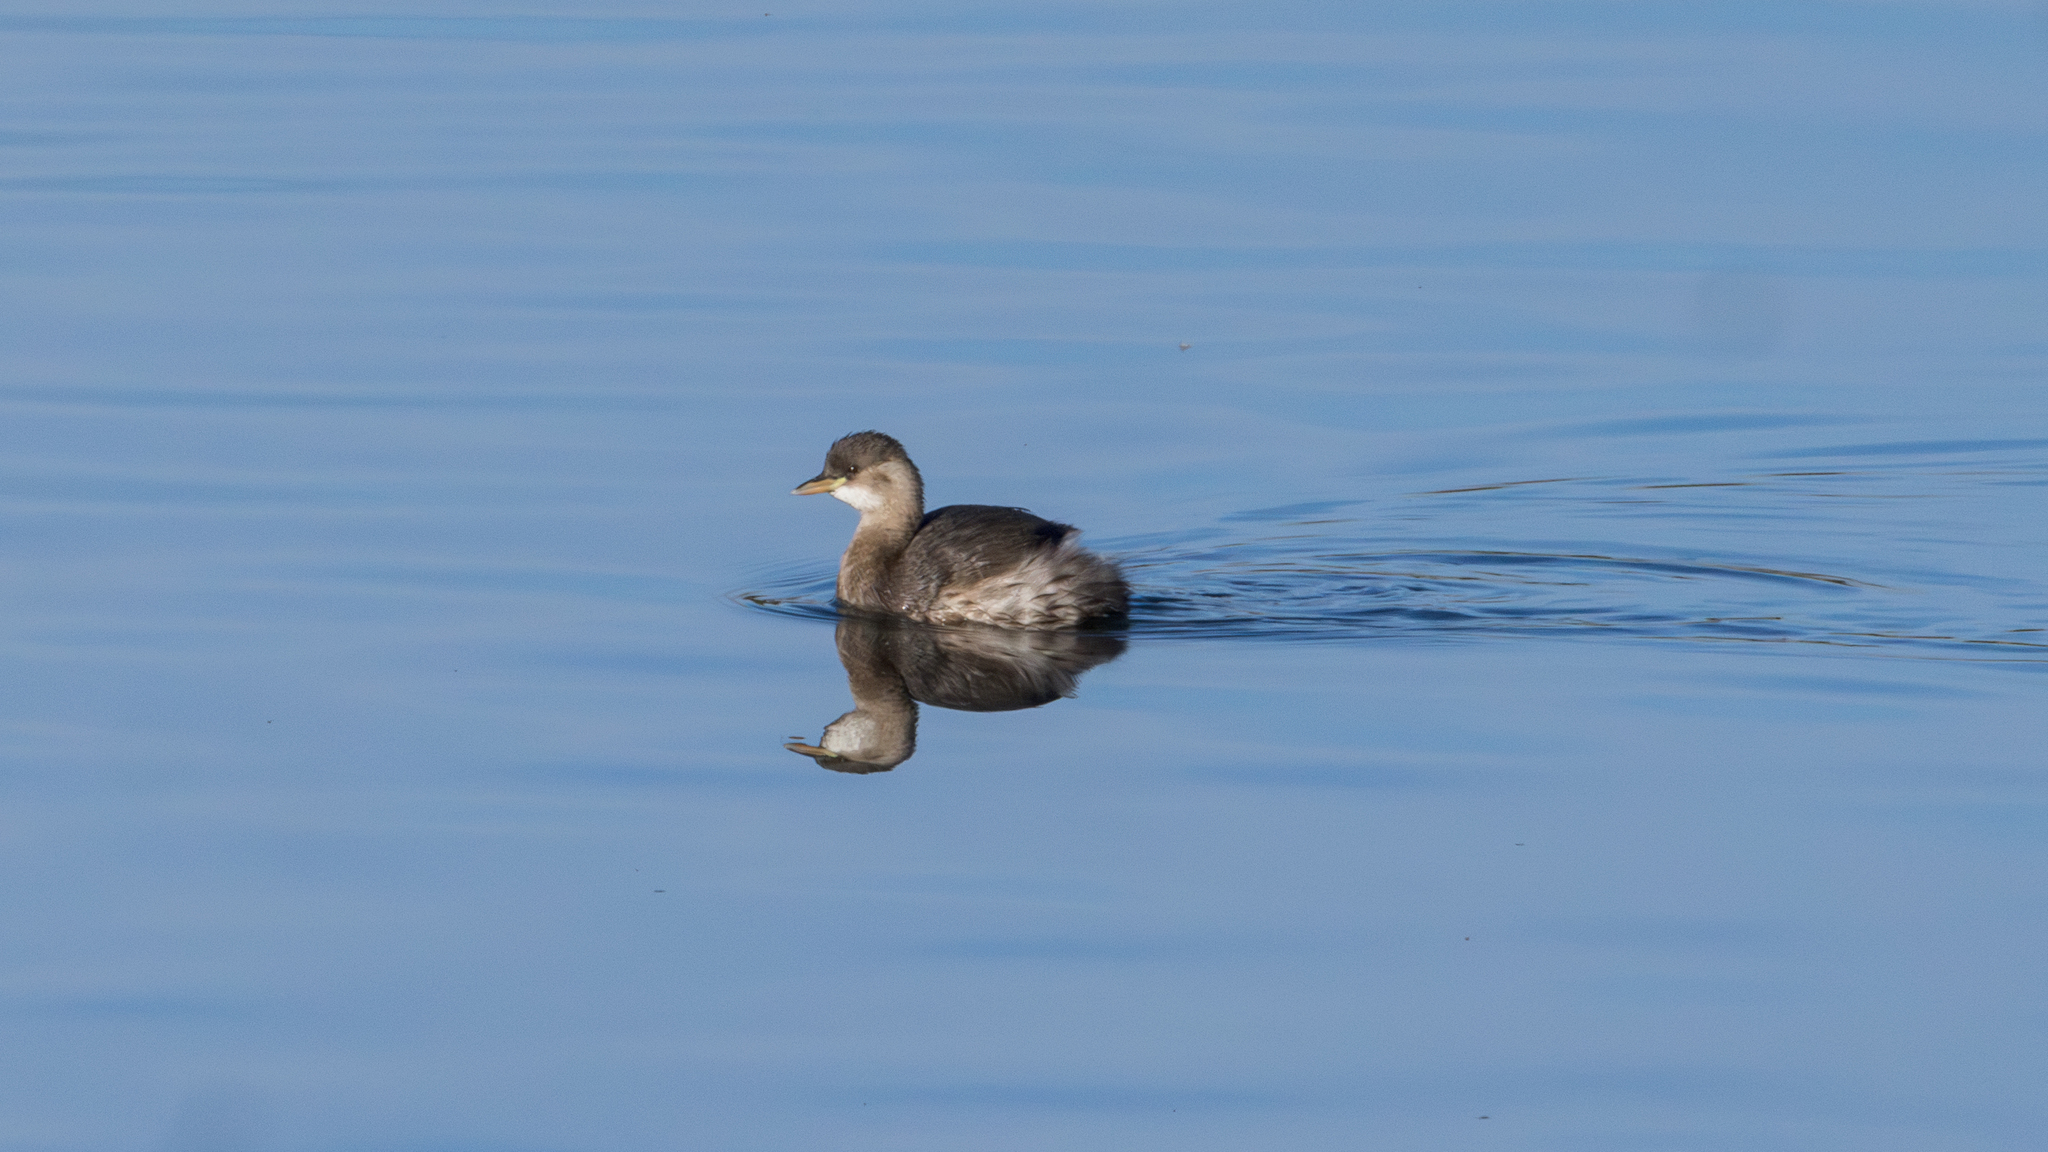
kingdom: Animalia
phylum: Chordata
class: Aves
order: Podicipediformes
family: Podicipedidae
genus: Tachybaptus
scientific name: Tachybaptus ruficollis
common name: Little grebe
